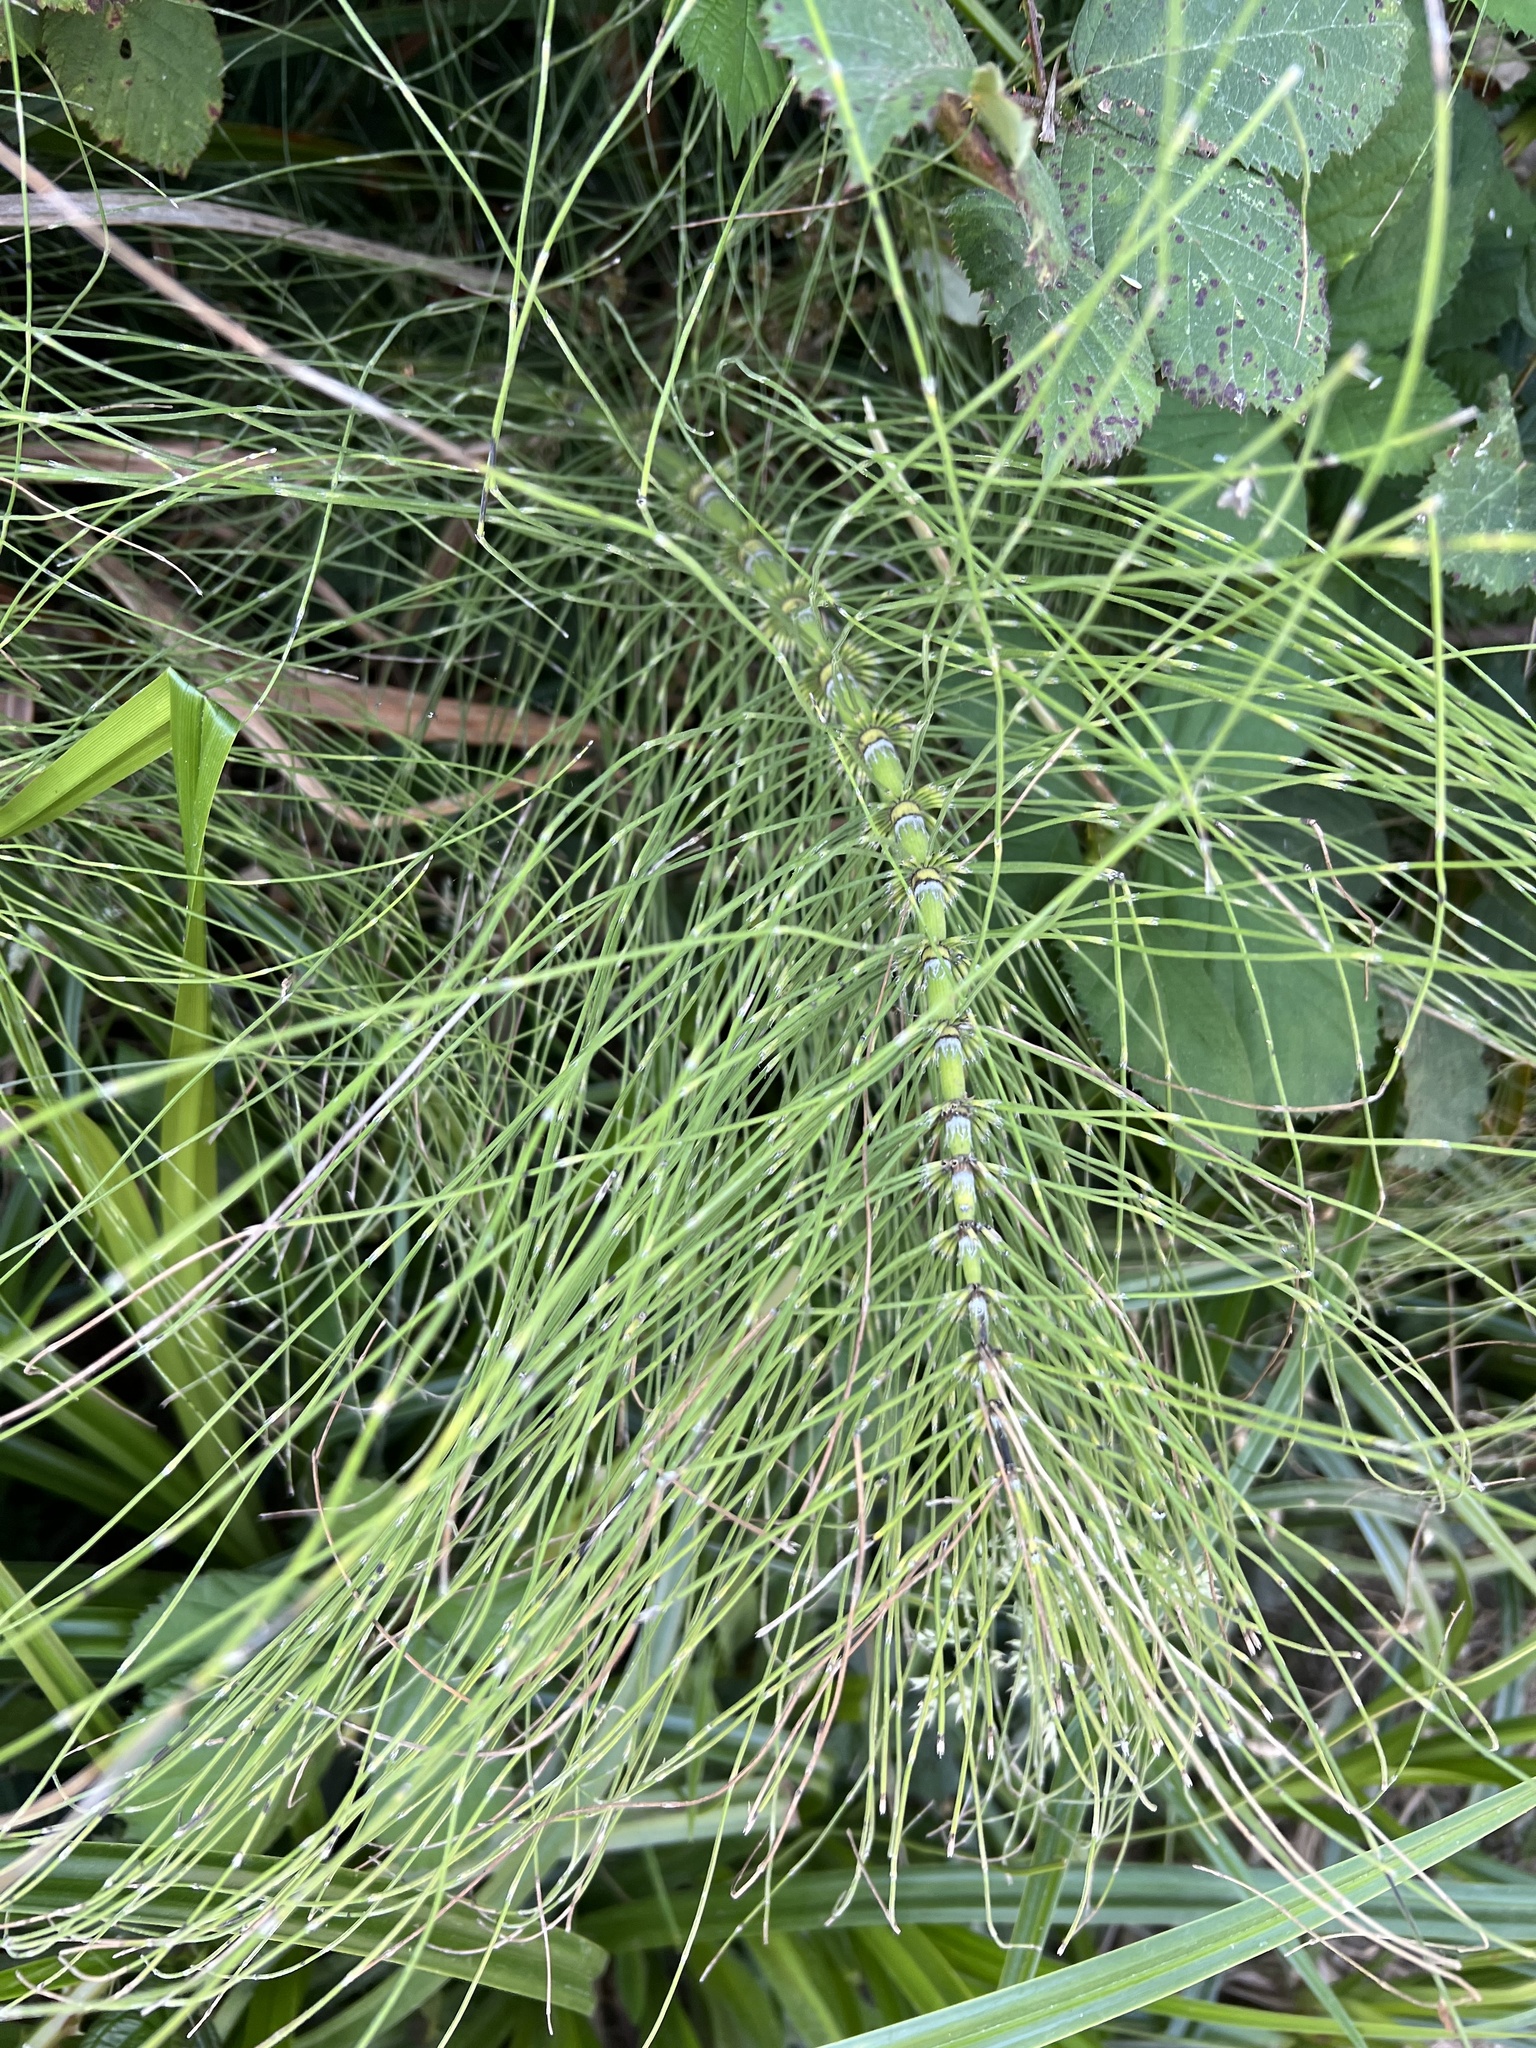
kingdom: Plantae
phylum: Tracheophyta
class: Polypodiopsida
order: Equisetales
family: Equisetaceae
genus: Equisetum
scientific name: Equisetum braunii
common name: Braun's horsetail
